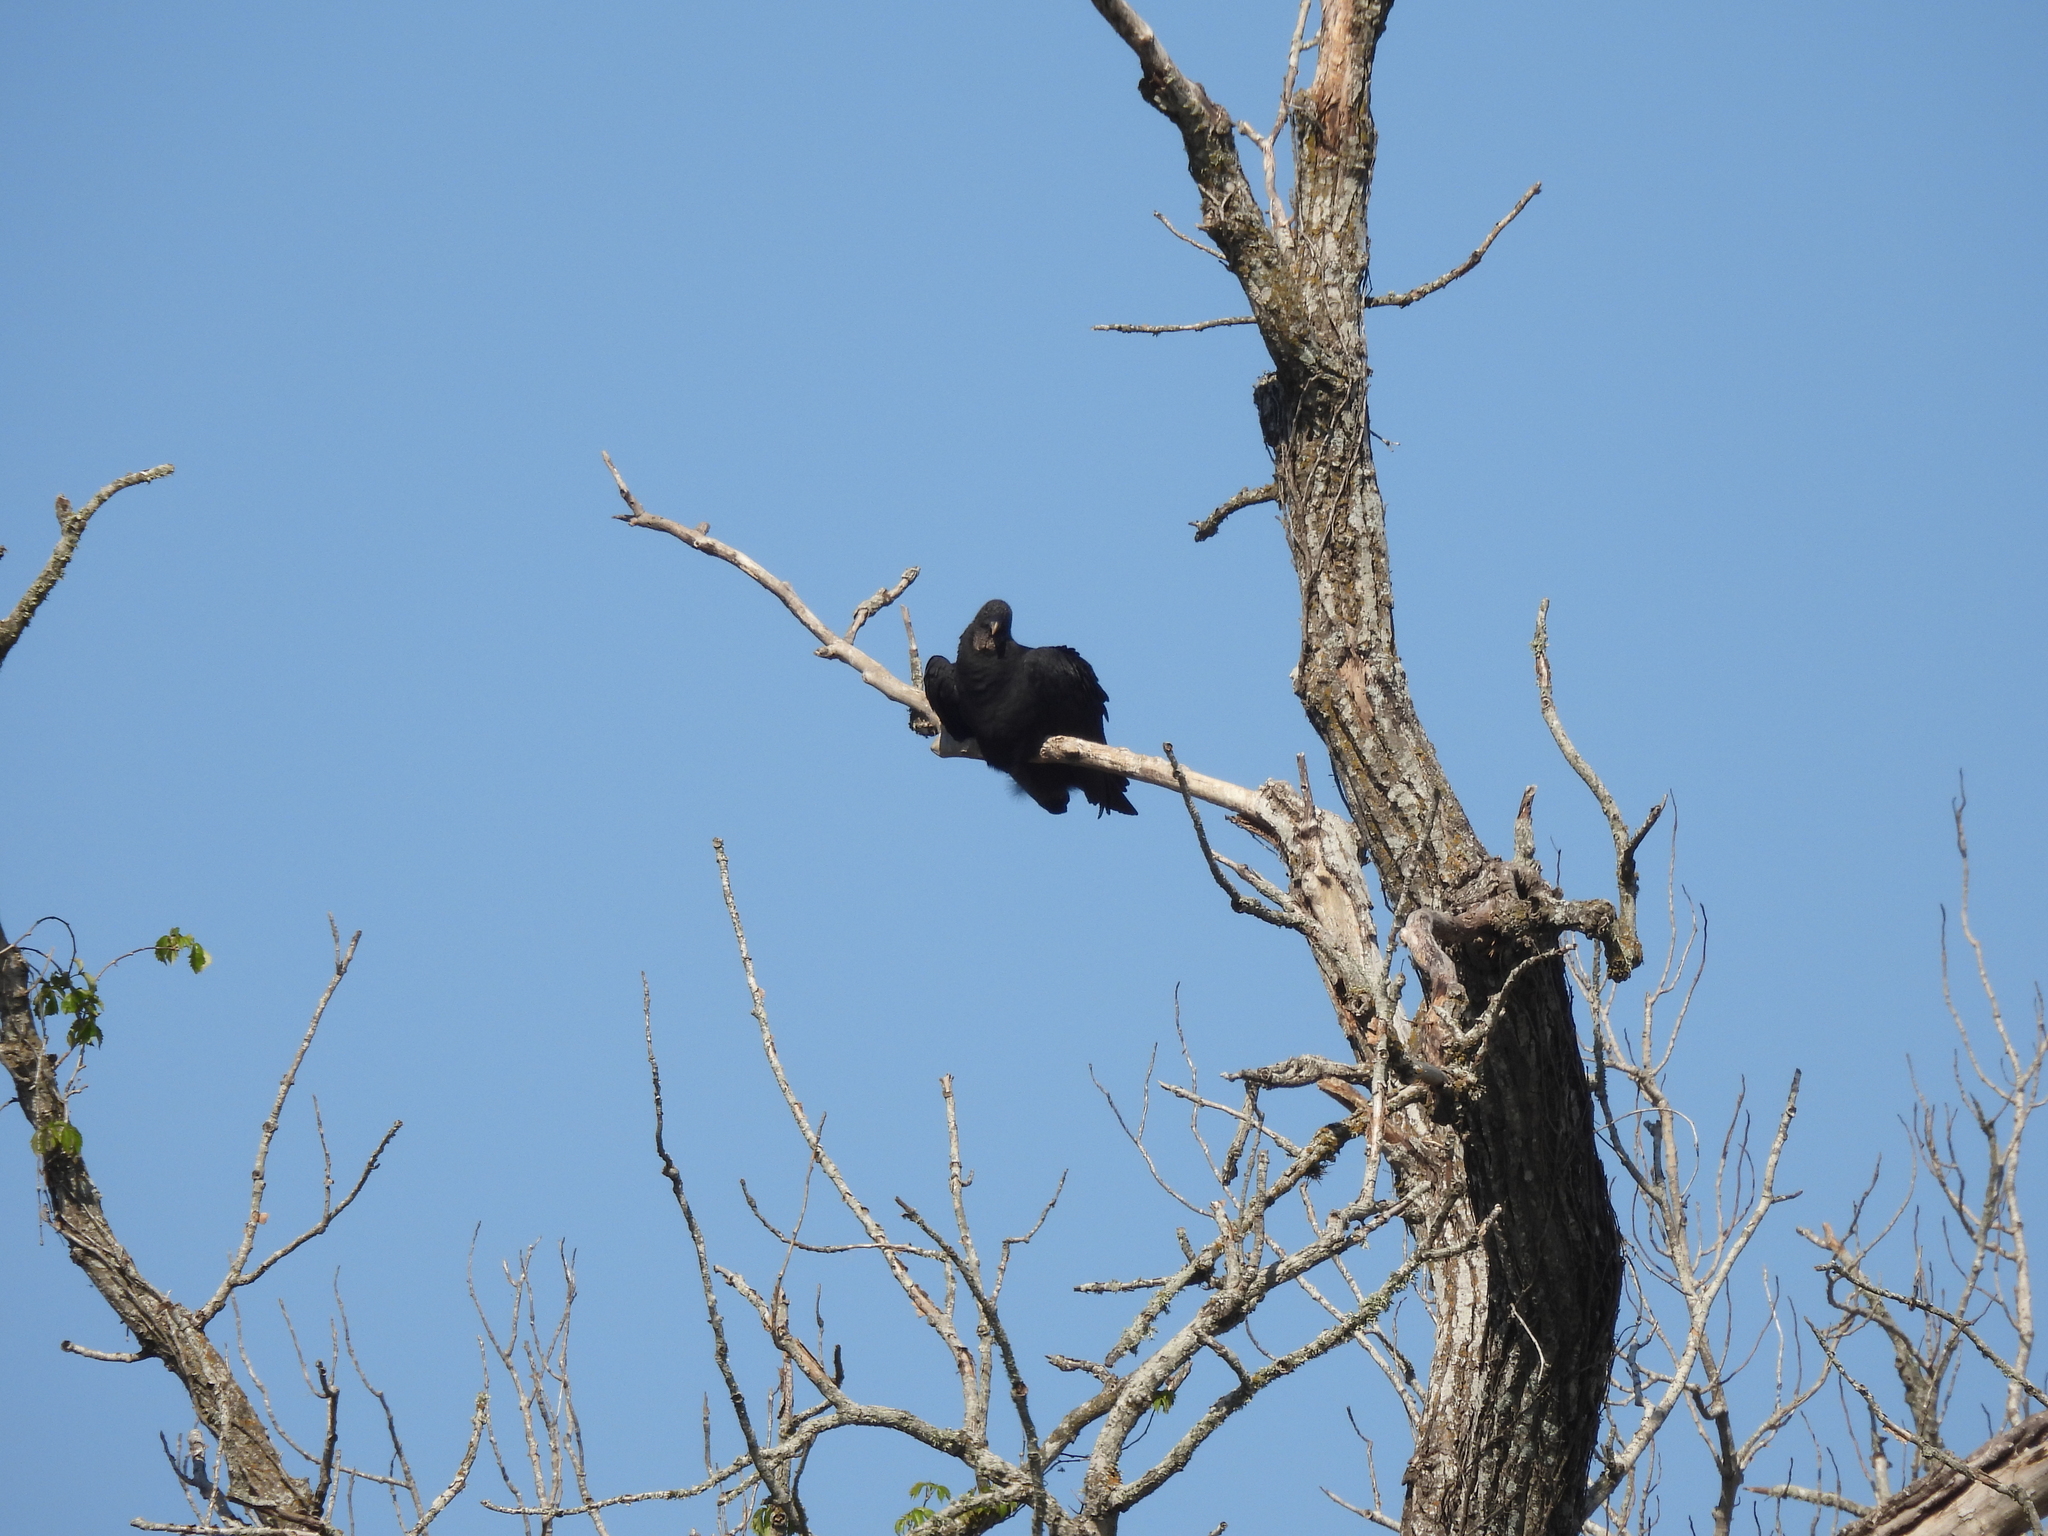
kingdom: Animalia
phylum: Chordata
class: Aves
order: Accipitriformes
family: Cathartidae
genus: Coragyps
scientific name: Coragyps atratus
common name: Black vulture
